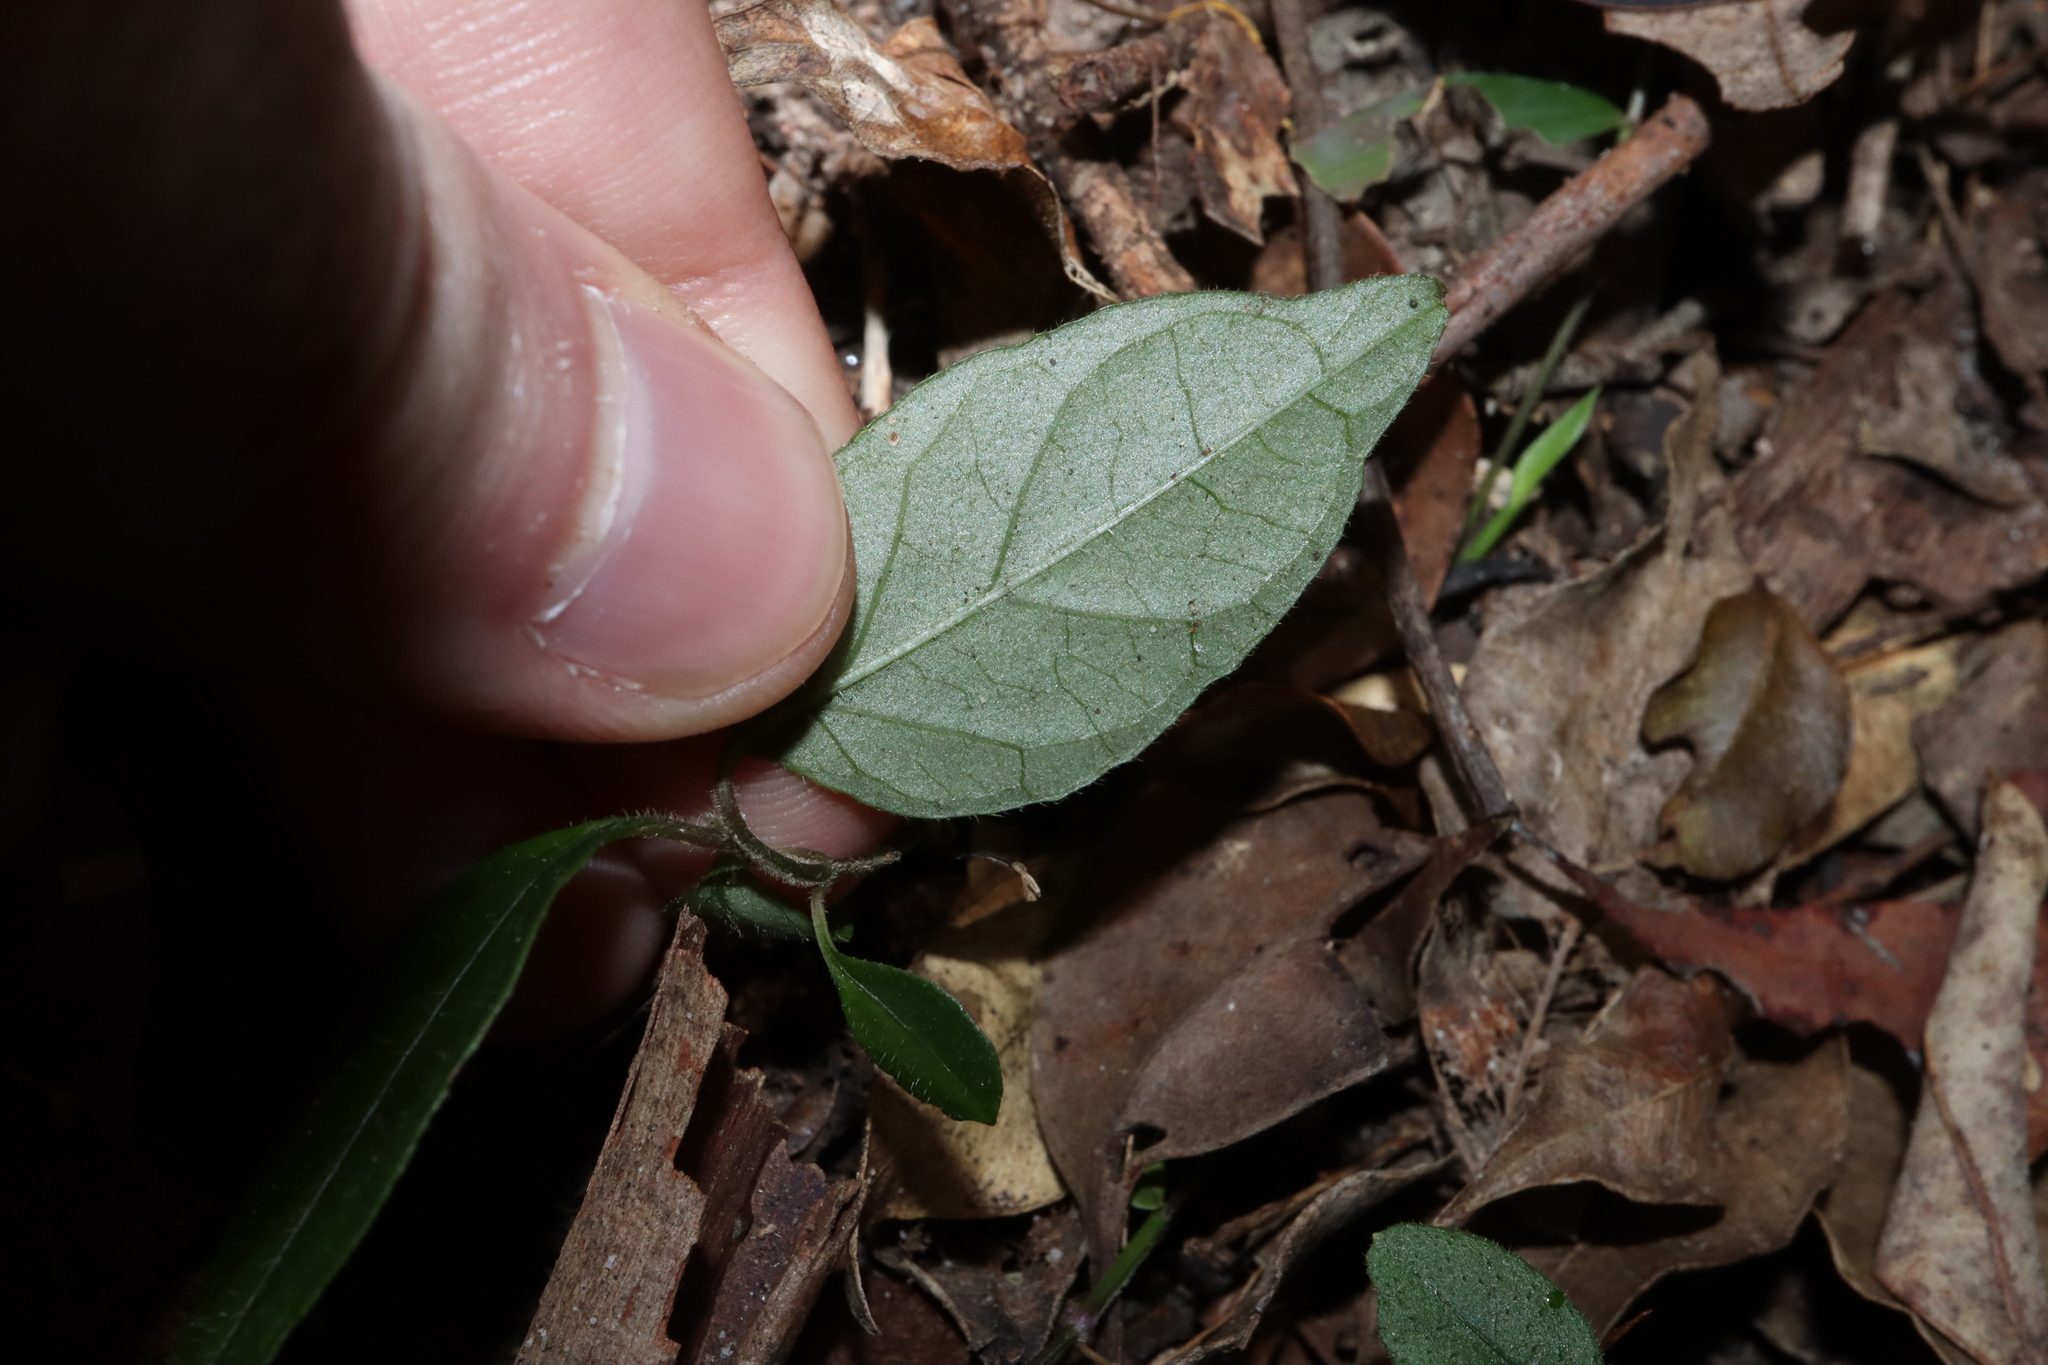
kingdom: Plantae
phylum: Tracheophyta
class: Magnoliopsida
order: Lamiales
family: Acanthaceae
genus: Pseuderanthemum
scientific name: Pseuderanthemum variabile
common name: Night and afternoon
